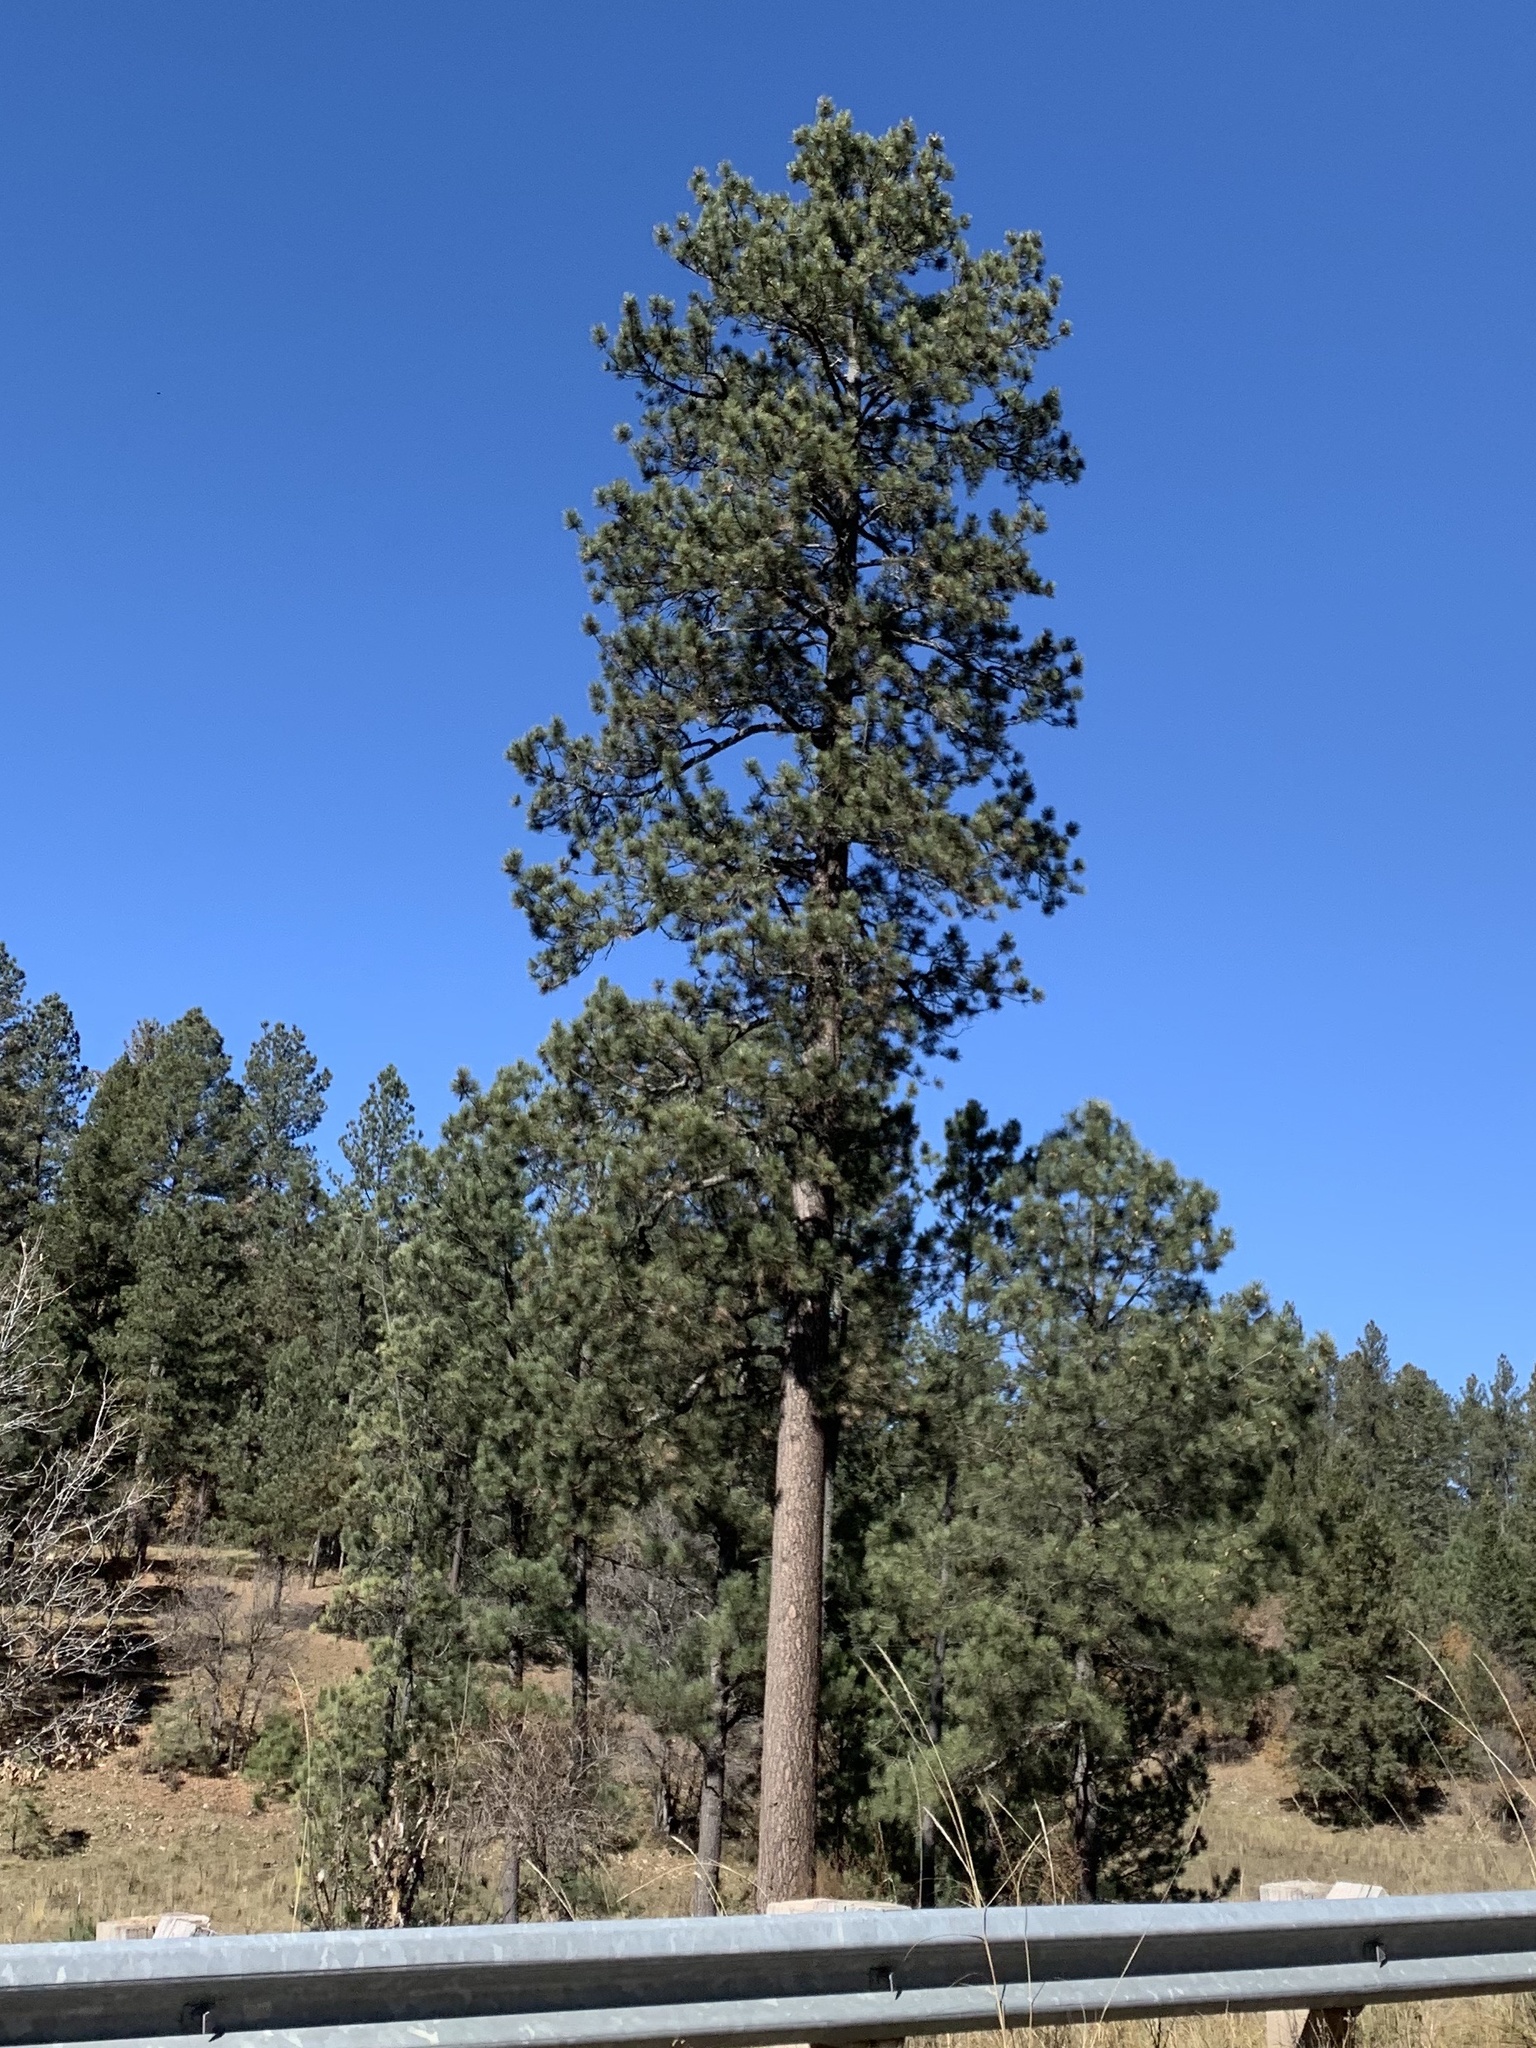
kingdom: Plantae
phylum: Tracheophyta
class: Pinopsida
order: Pinales
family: Pinaceae
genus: Pinus
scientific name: Pinus ponderosa
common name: Western yellow-pine
